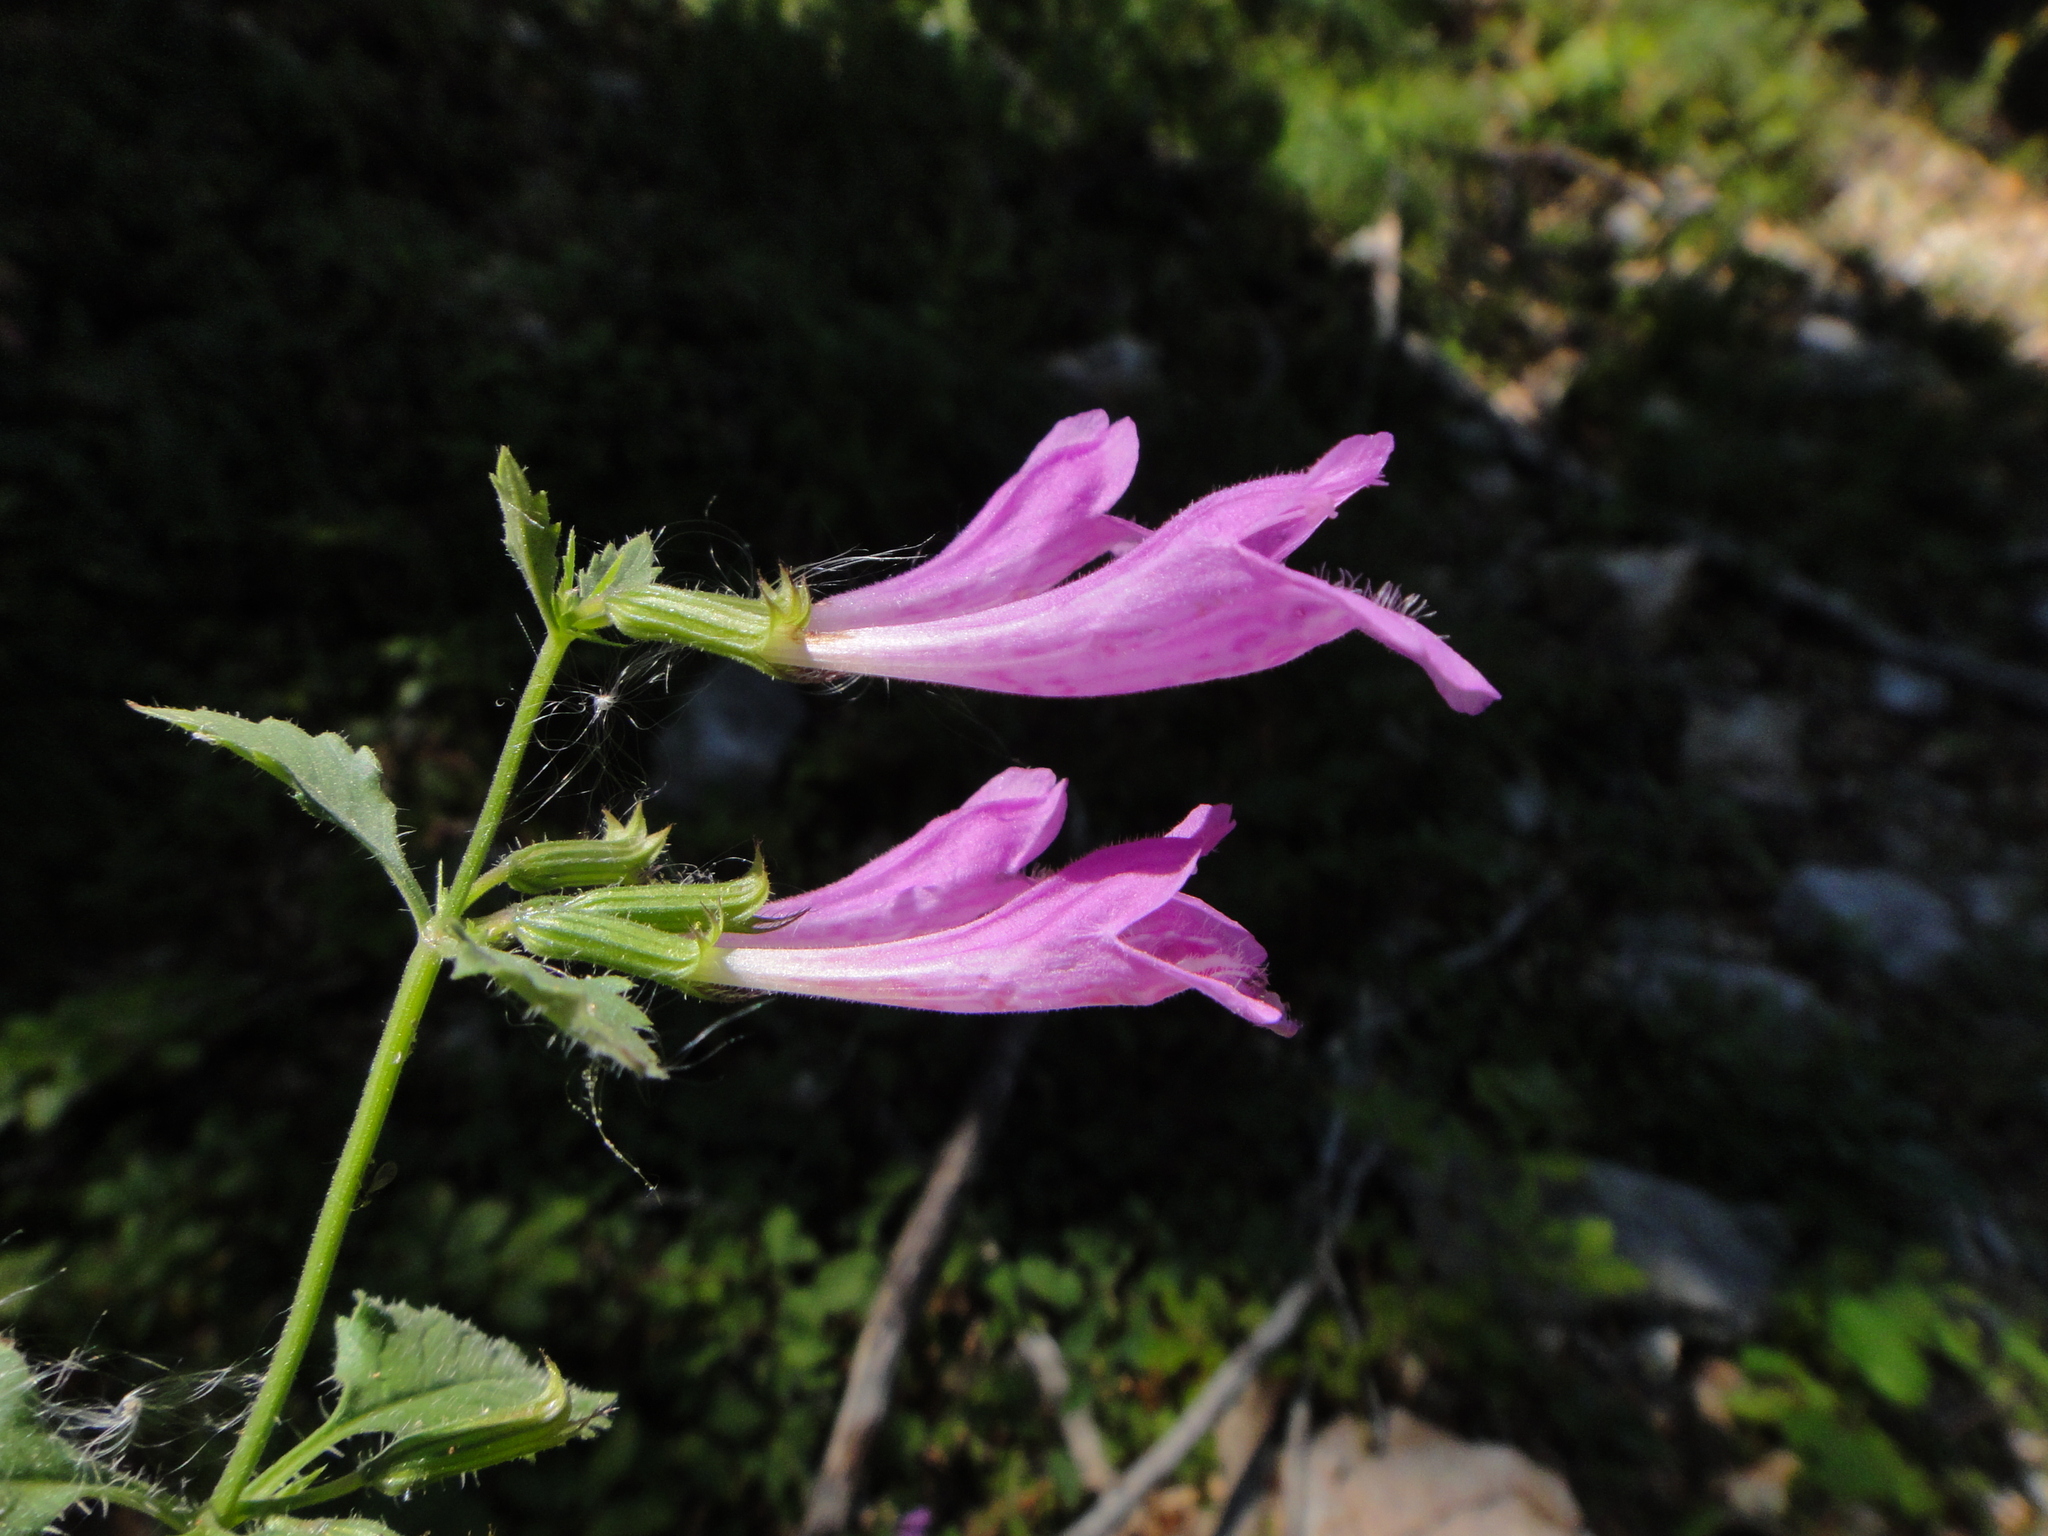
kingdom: Plantae
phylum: Tracheophyta
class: Magnoliopsida
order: Lamiales
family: Lamiaceae
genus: Clinopodium
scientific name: Clinopodium grandiflorum
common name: Greater calamint
